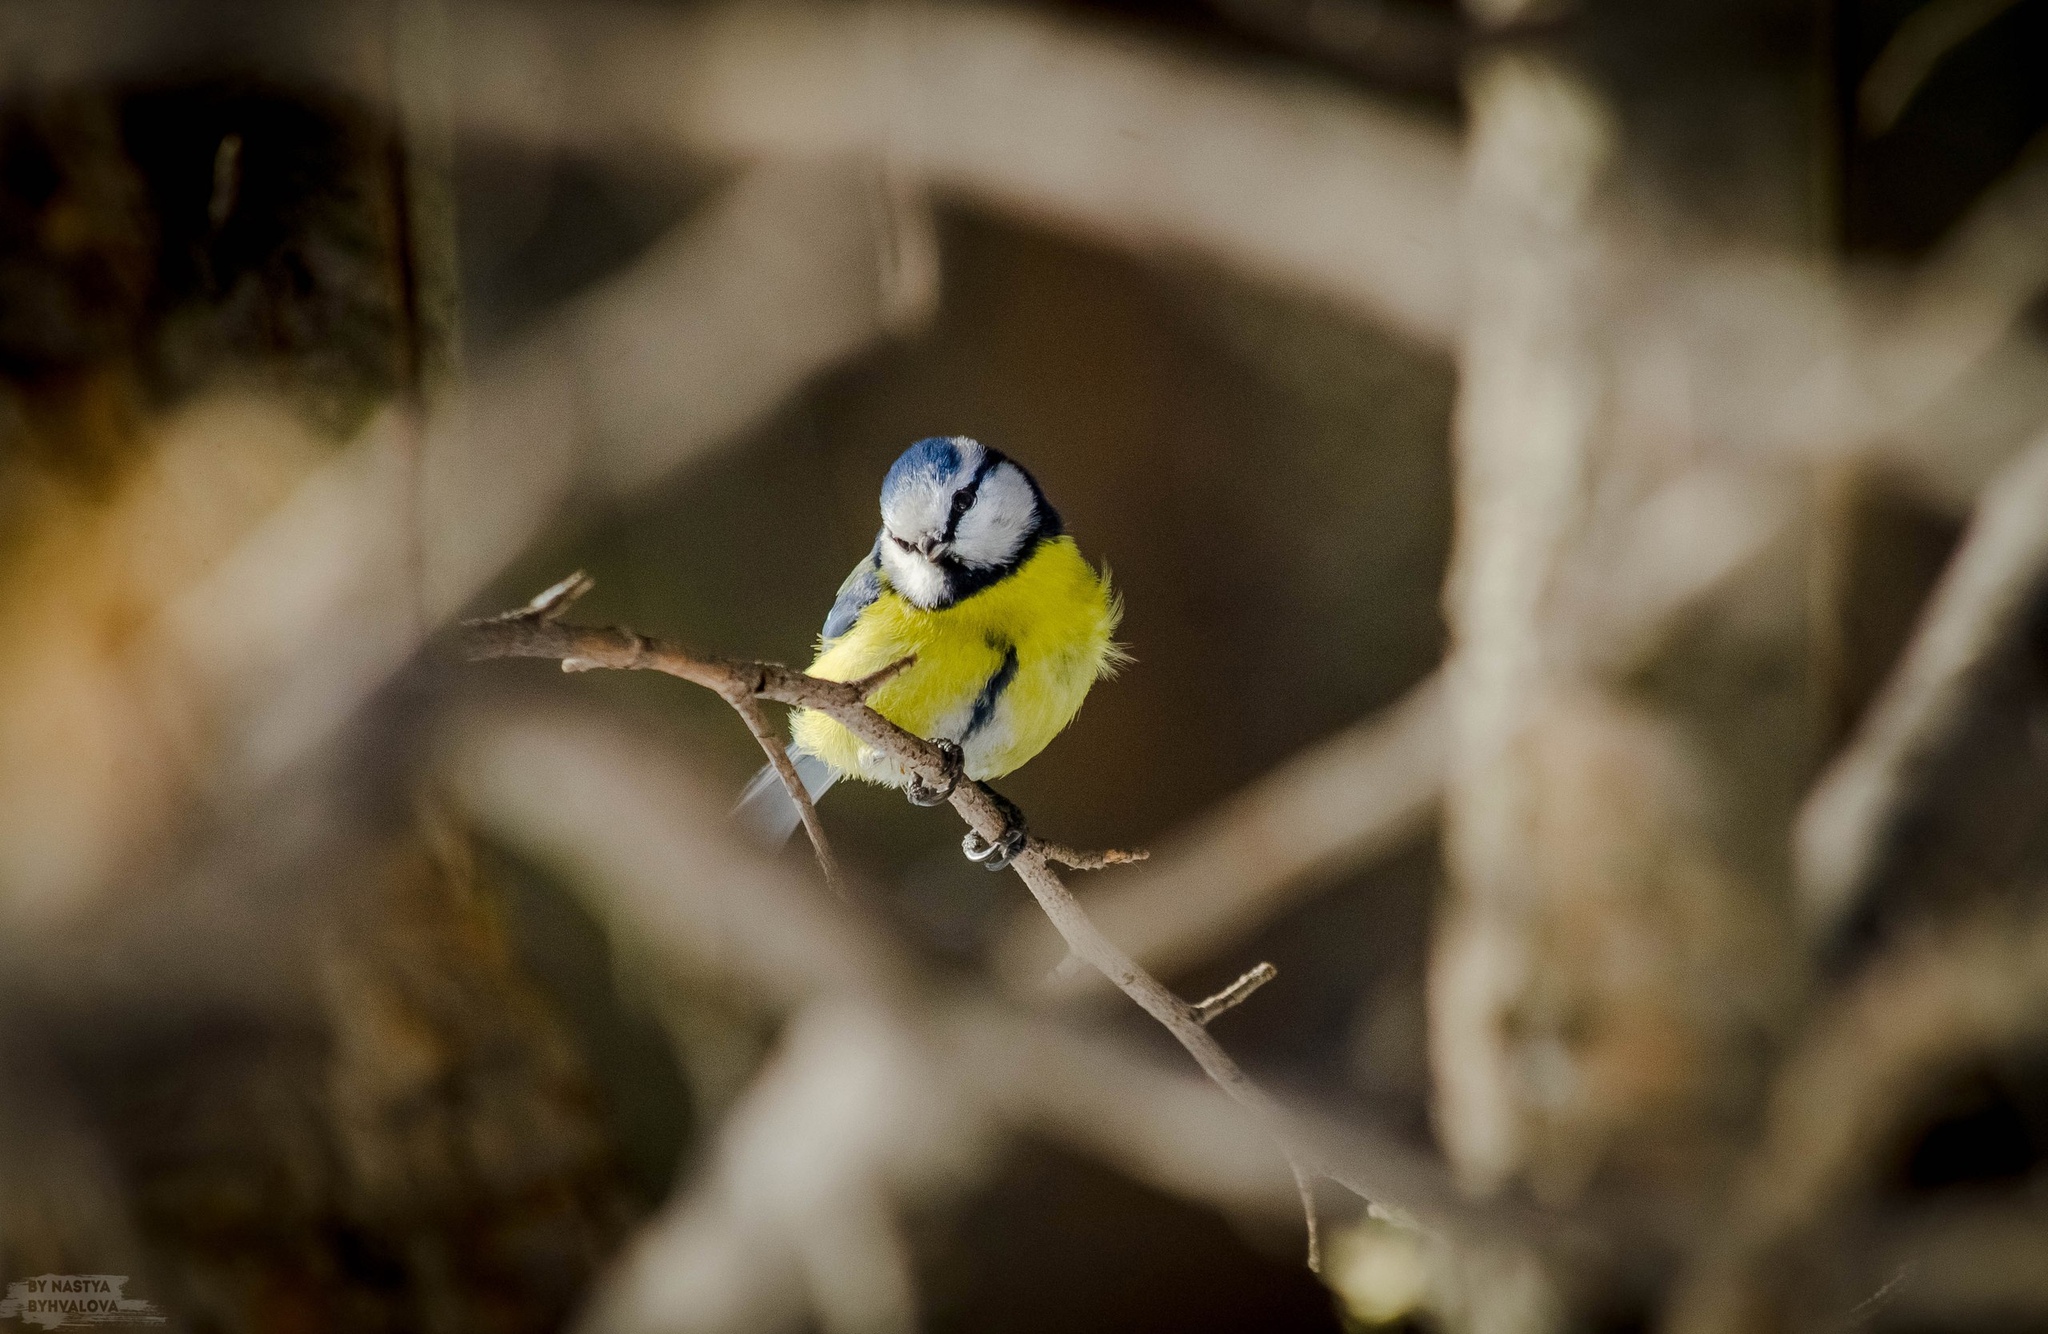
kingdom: Animalia
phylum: Chordata
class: Aves
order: Passeriformes
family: Paridae
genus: Cyanistes
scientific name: Cyanistes caeruleus
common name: Eurasian blue tit
